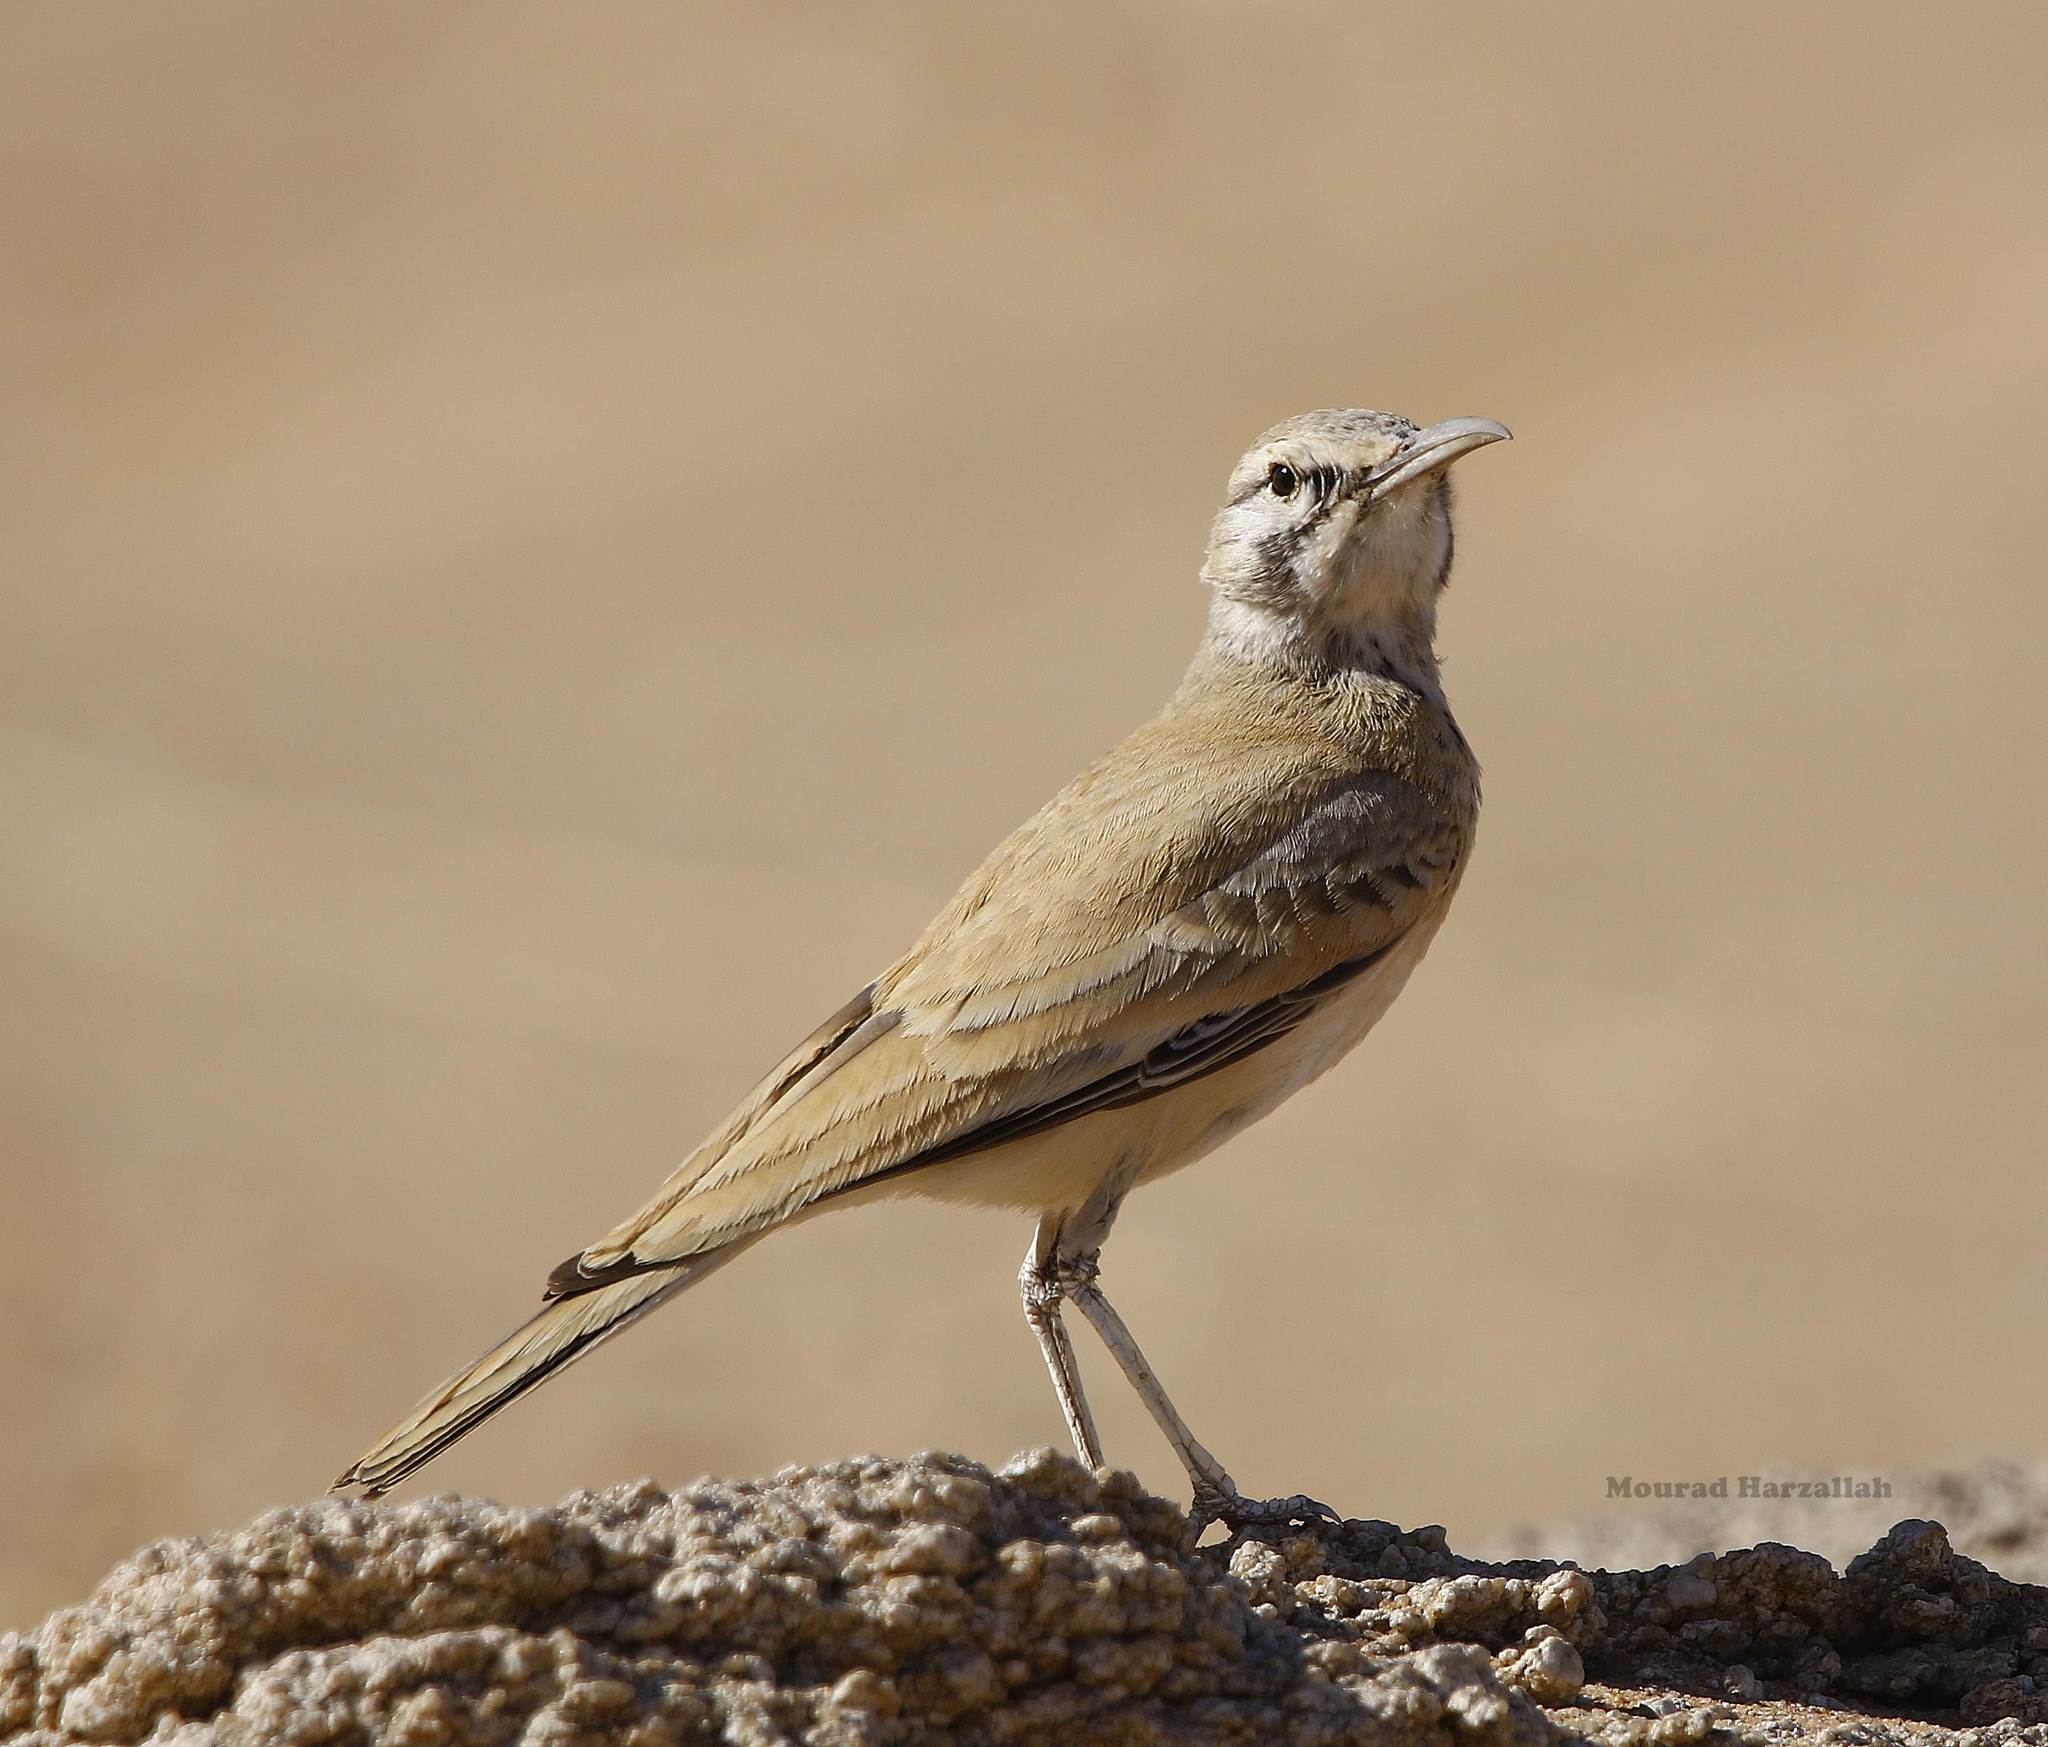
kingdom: Animalia
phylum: Chordata
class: Aves
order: Passeriformes
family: Alaudidae
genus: Alaemon
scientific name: Alaemon alaudipes
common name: Greater hoopoe-lark
